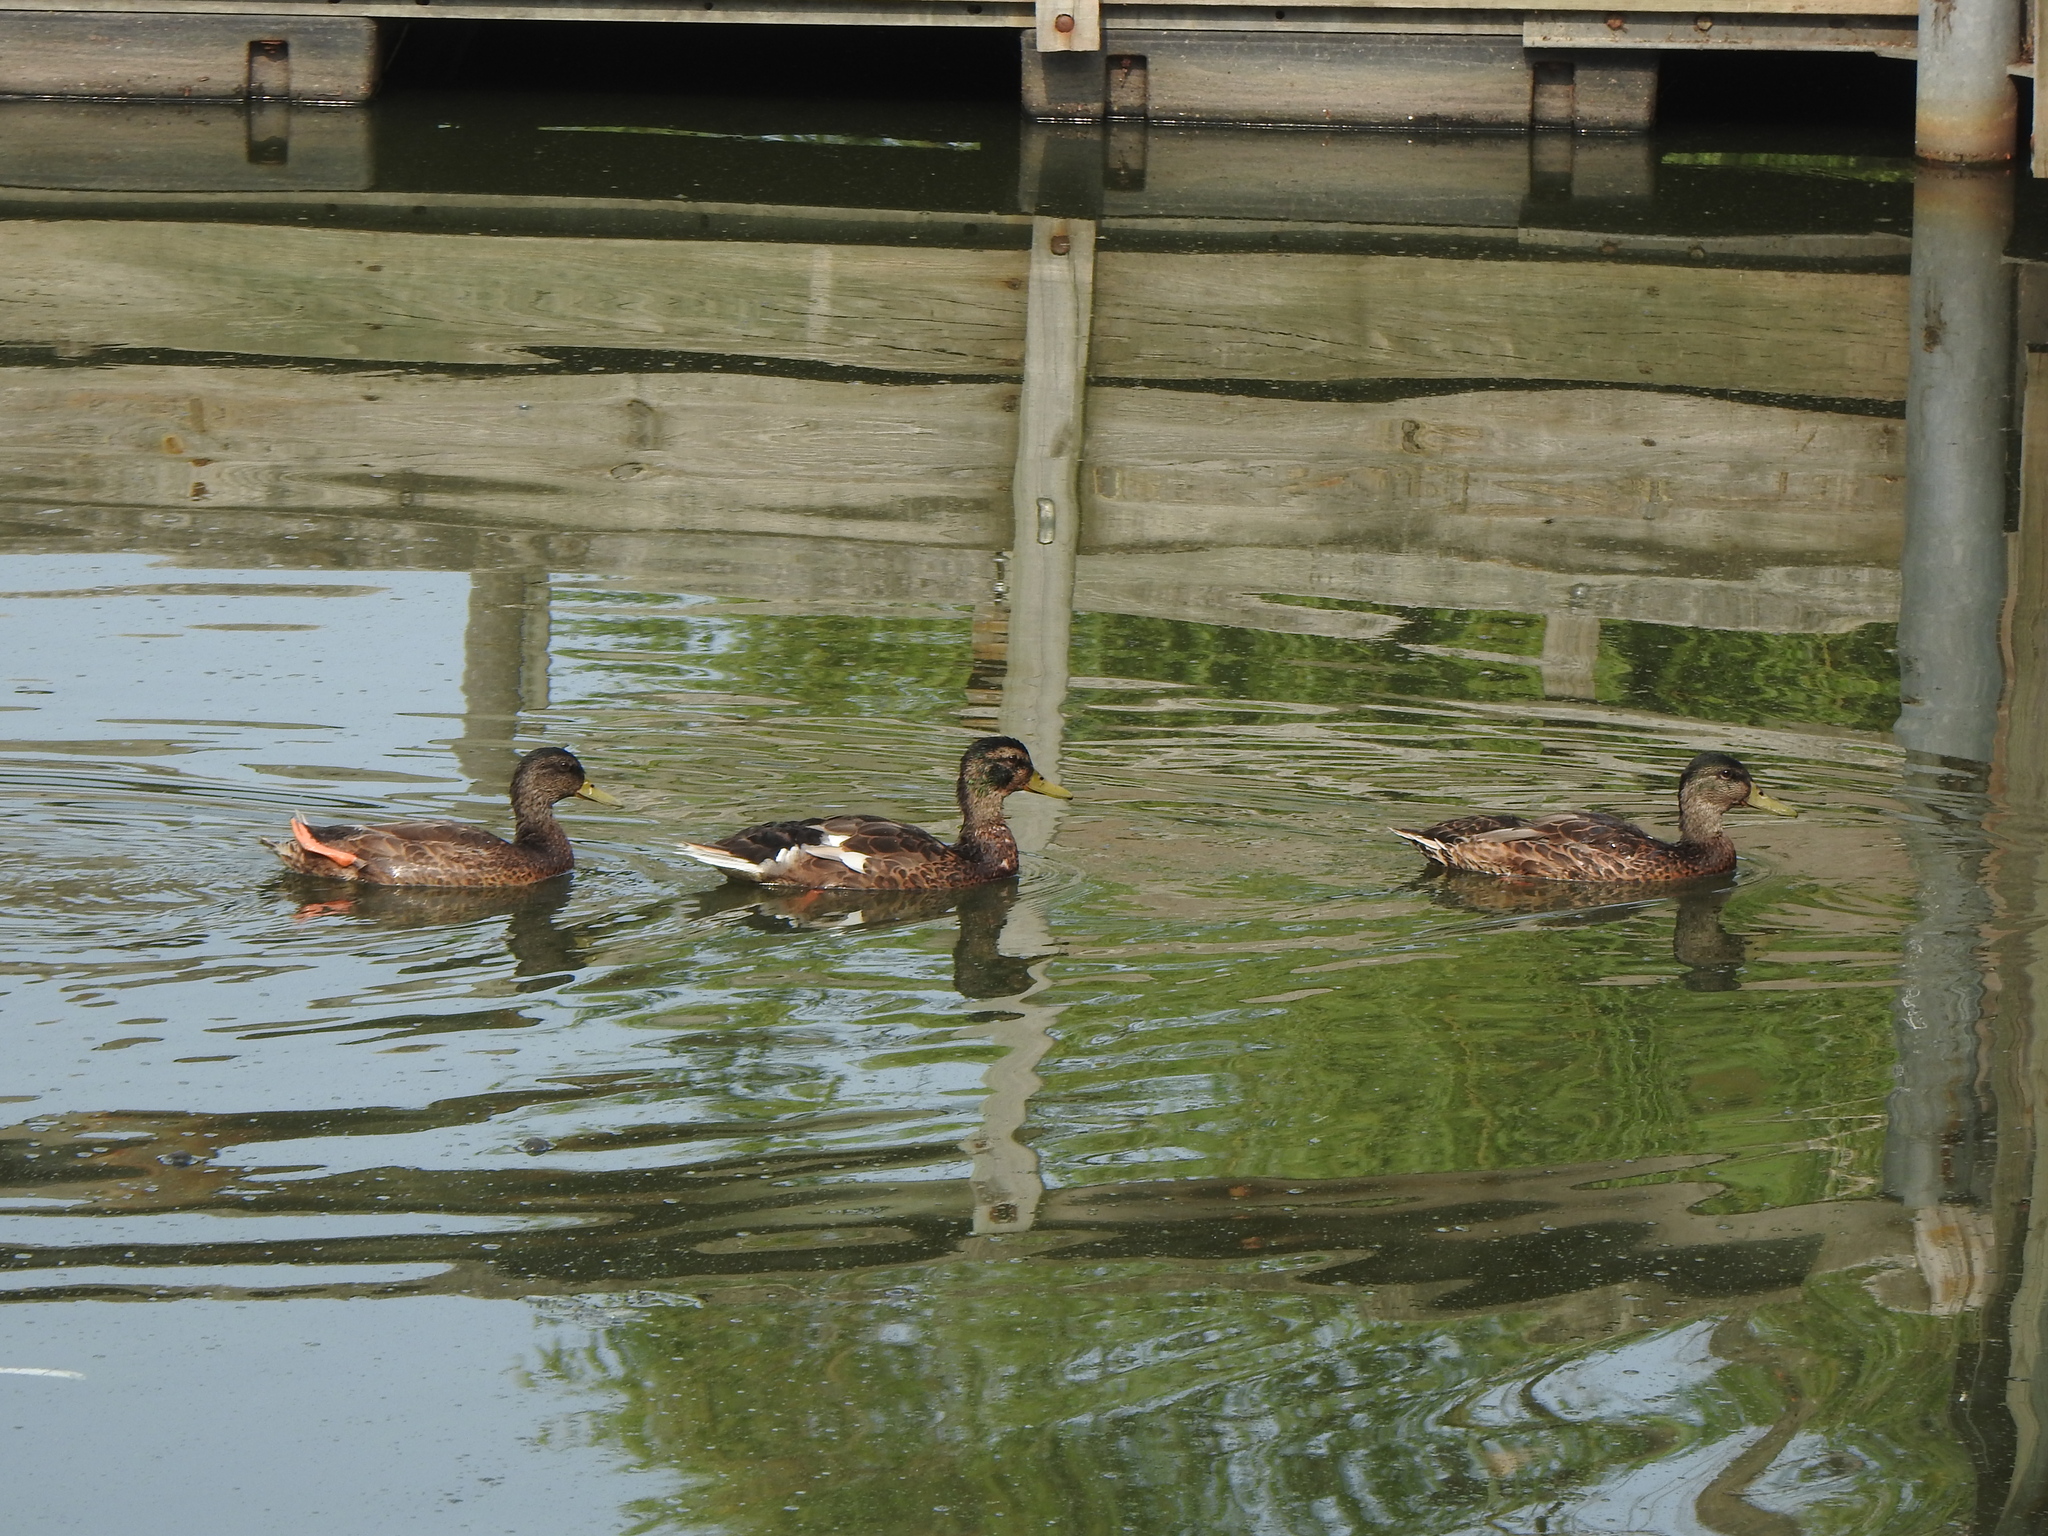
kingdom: Animalia
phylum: Chordata
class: Aves
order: Anseriformes
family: Anatidae
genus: Anas
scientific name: Anas platyrhynchos
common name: Mallard
